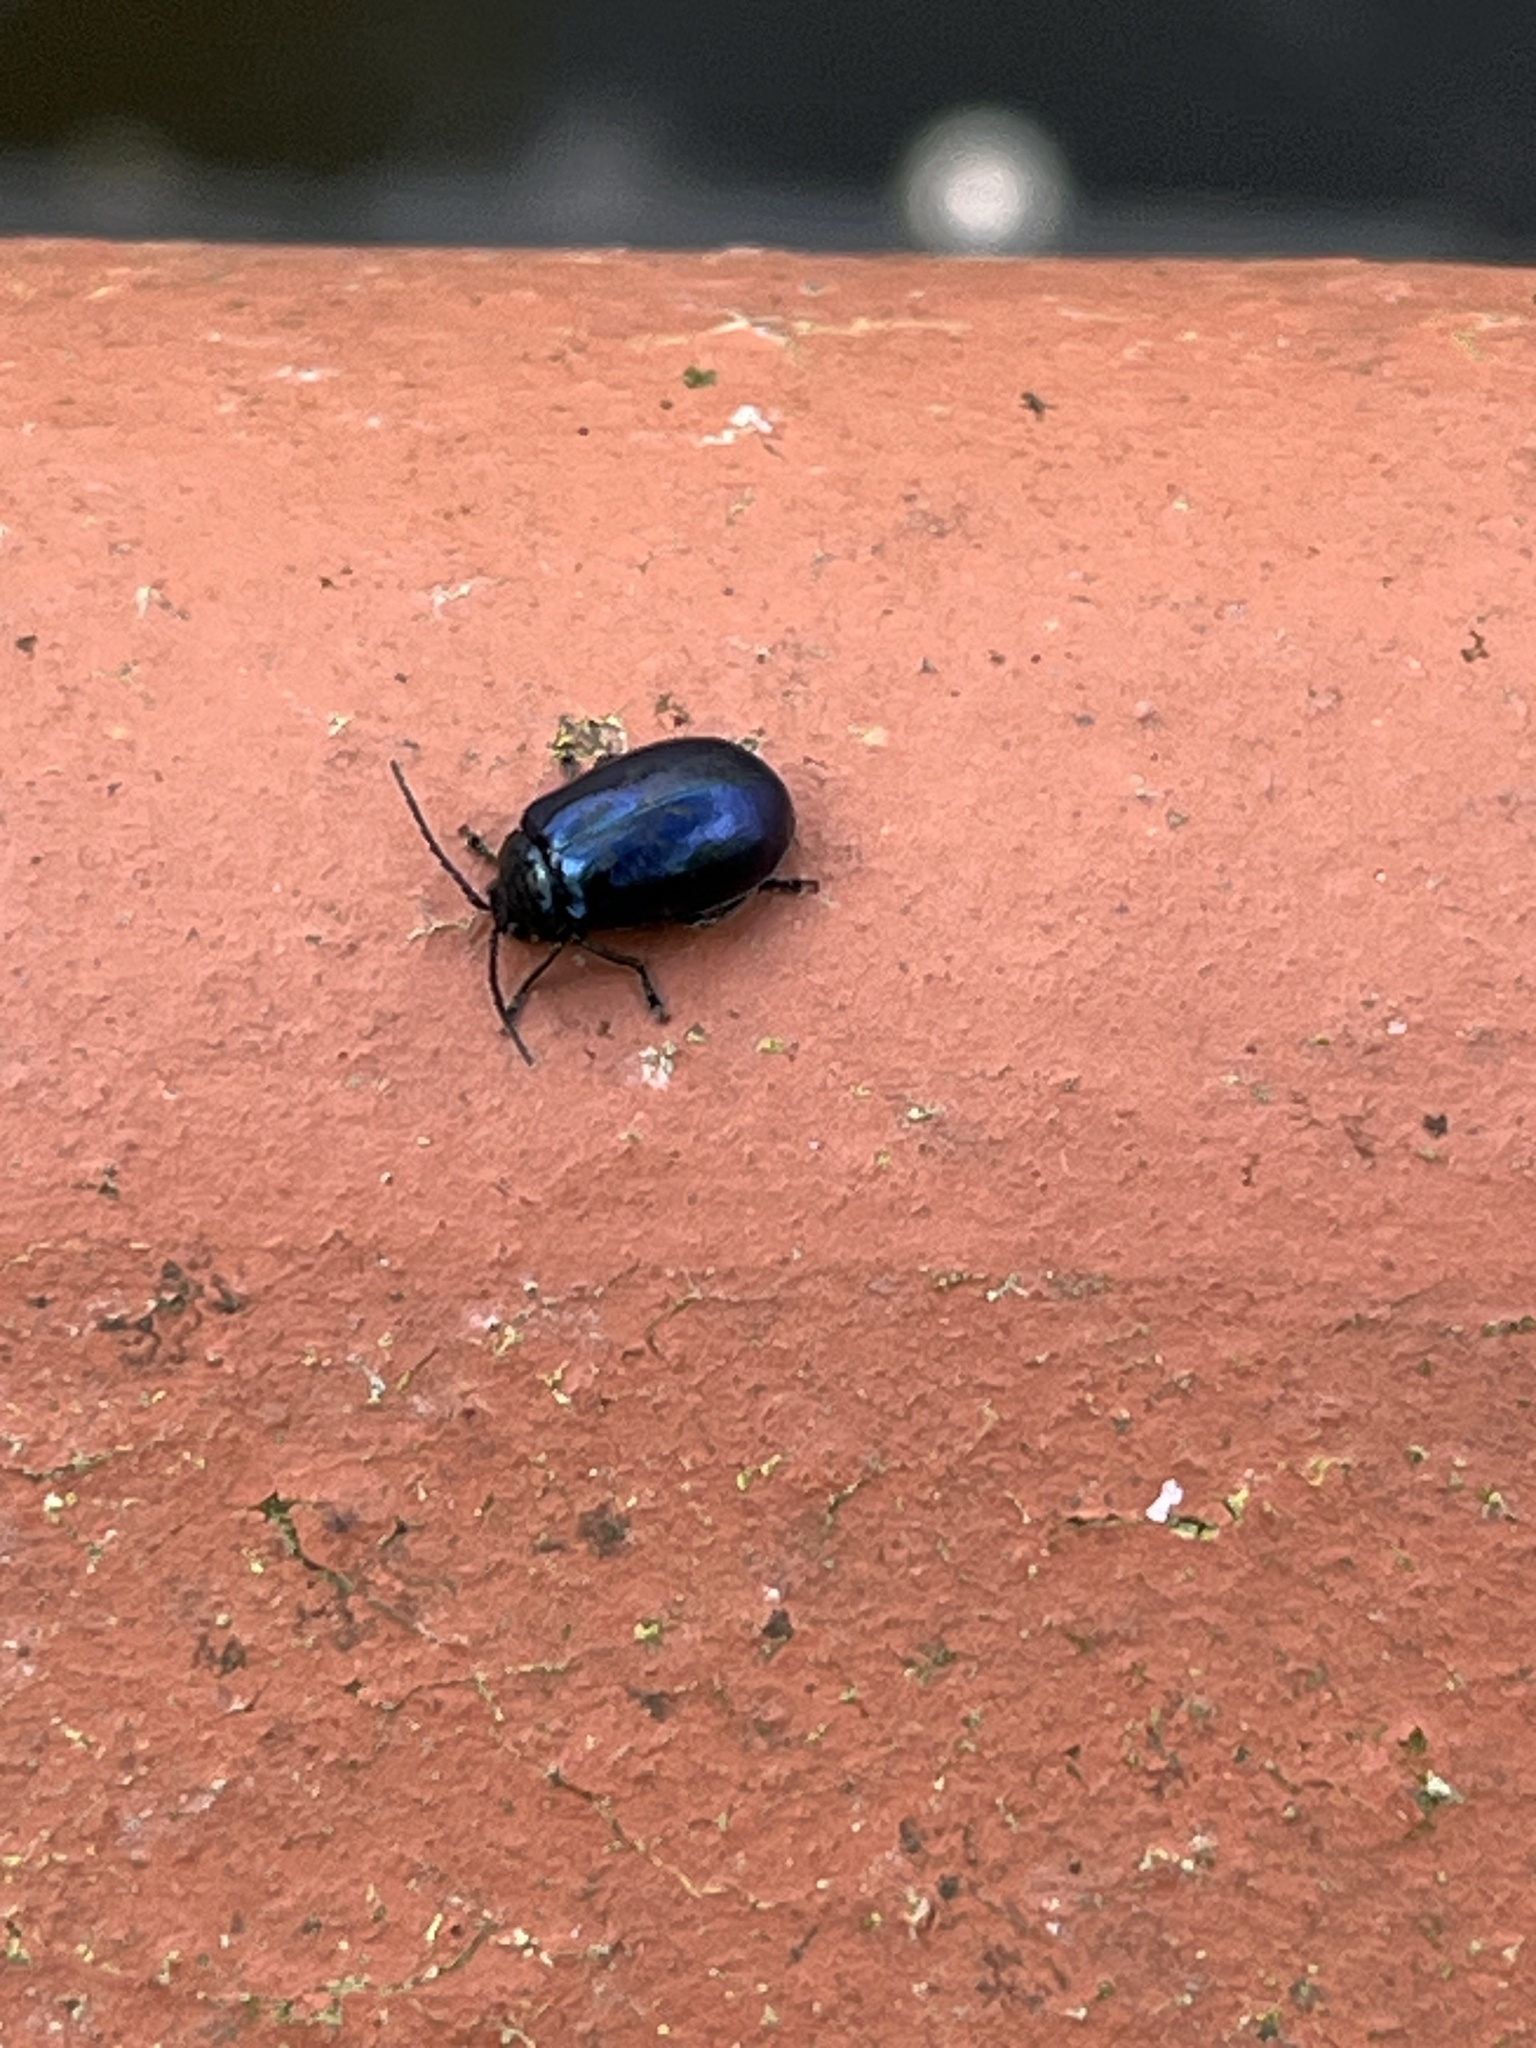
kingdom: Animalia
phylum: Arthropoda
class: Insecta
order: Coleoptera
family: Chrysomelidae
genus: Agelastica
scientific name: Agelastica alni
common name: Alder leaf beetle
